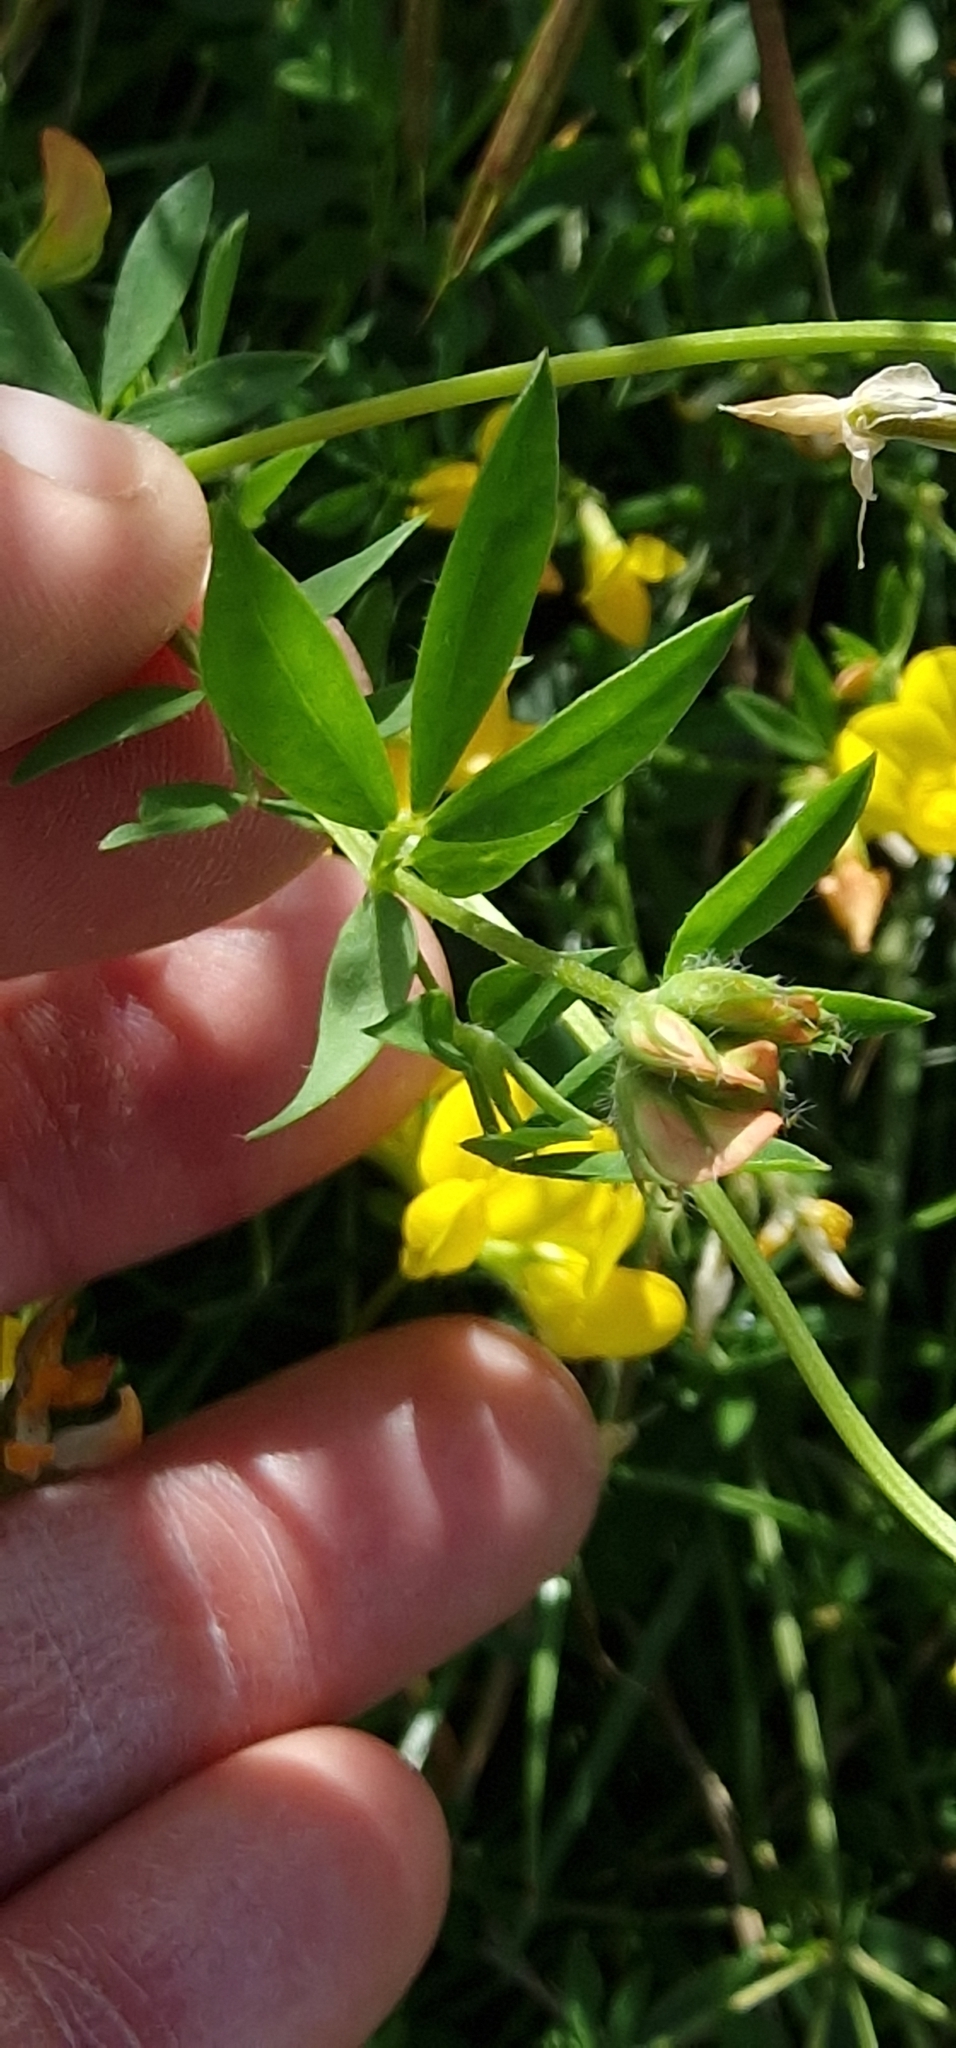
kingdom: Plantae
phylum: Tracheophyta
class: Magnoliopsida
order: Fabales
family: Fabaceae
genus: Lotus
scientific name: Lotus corniculatus
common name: Common bird's-foot-trefoil
